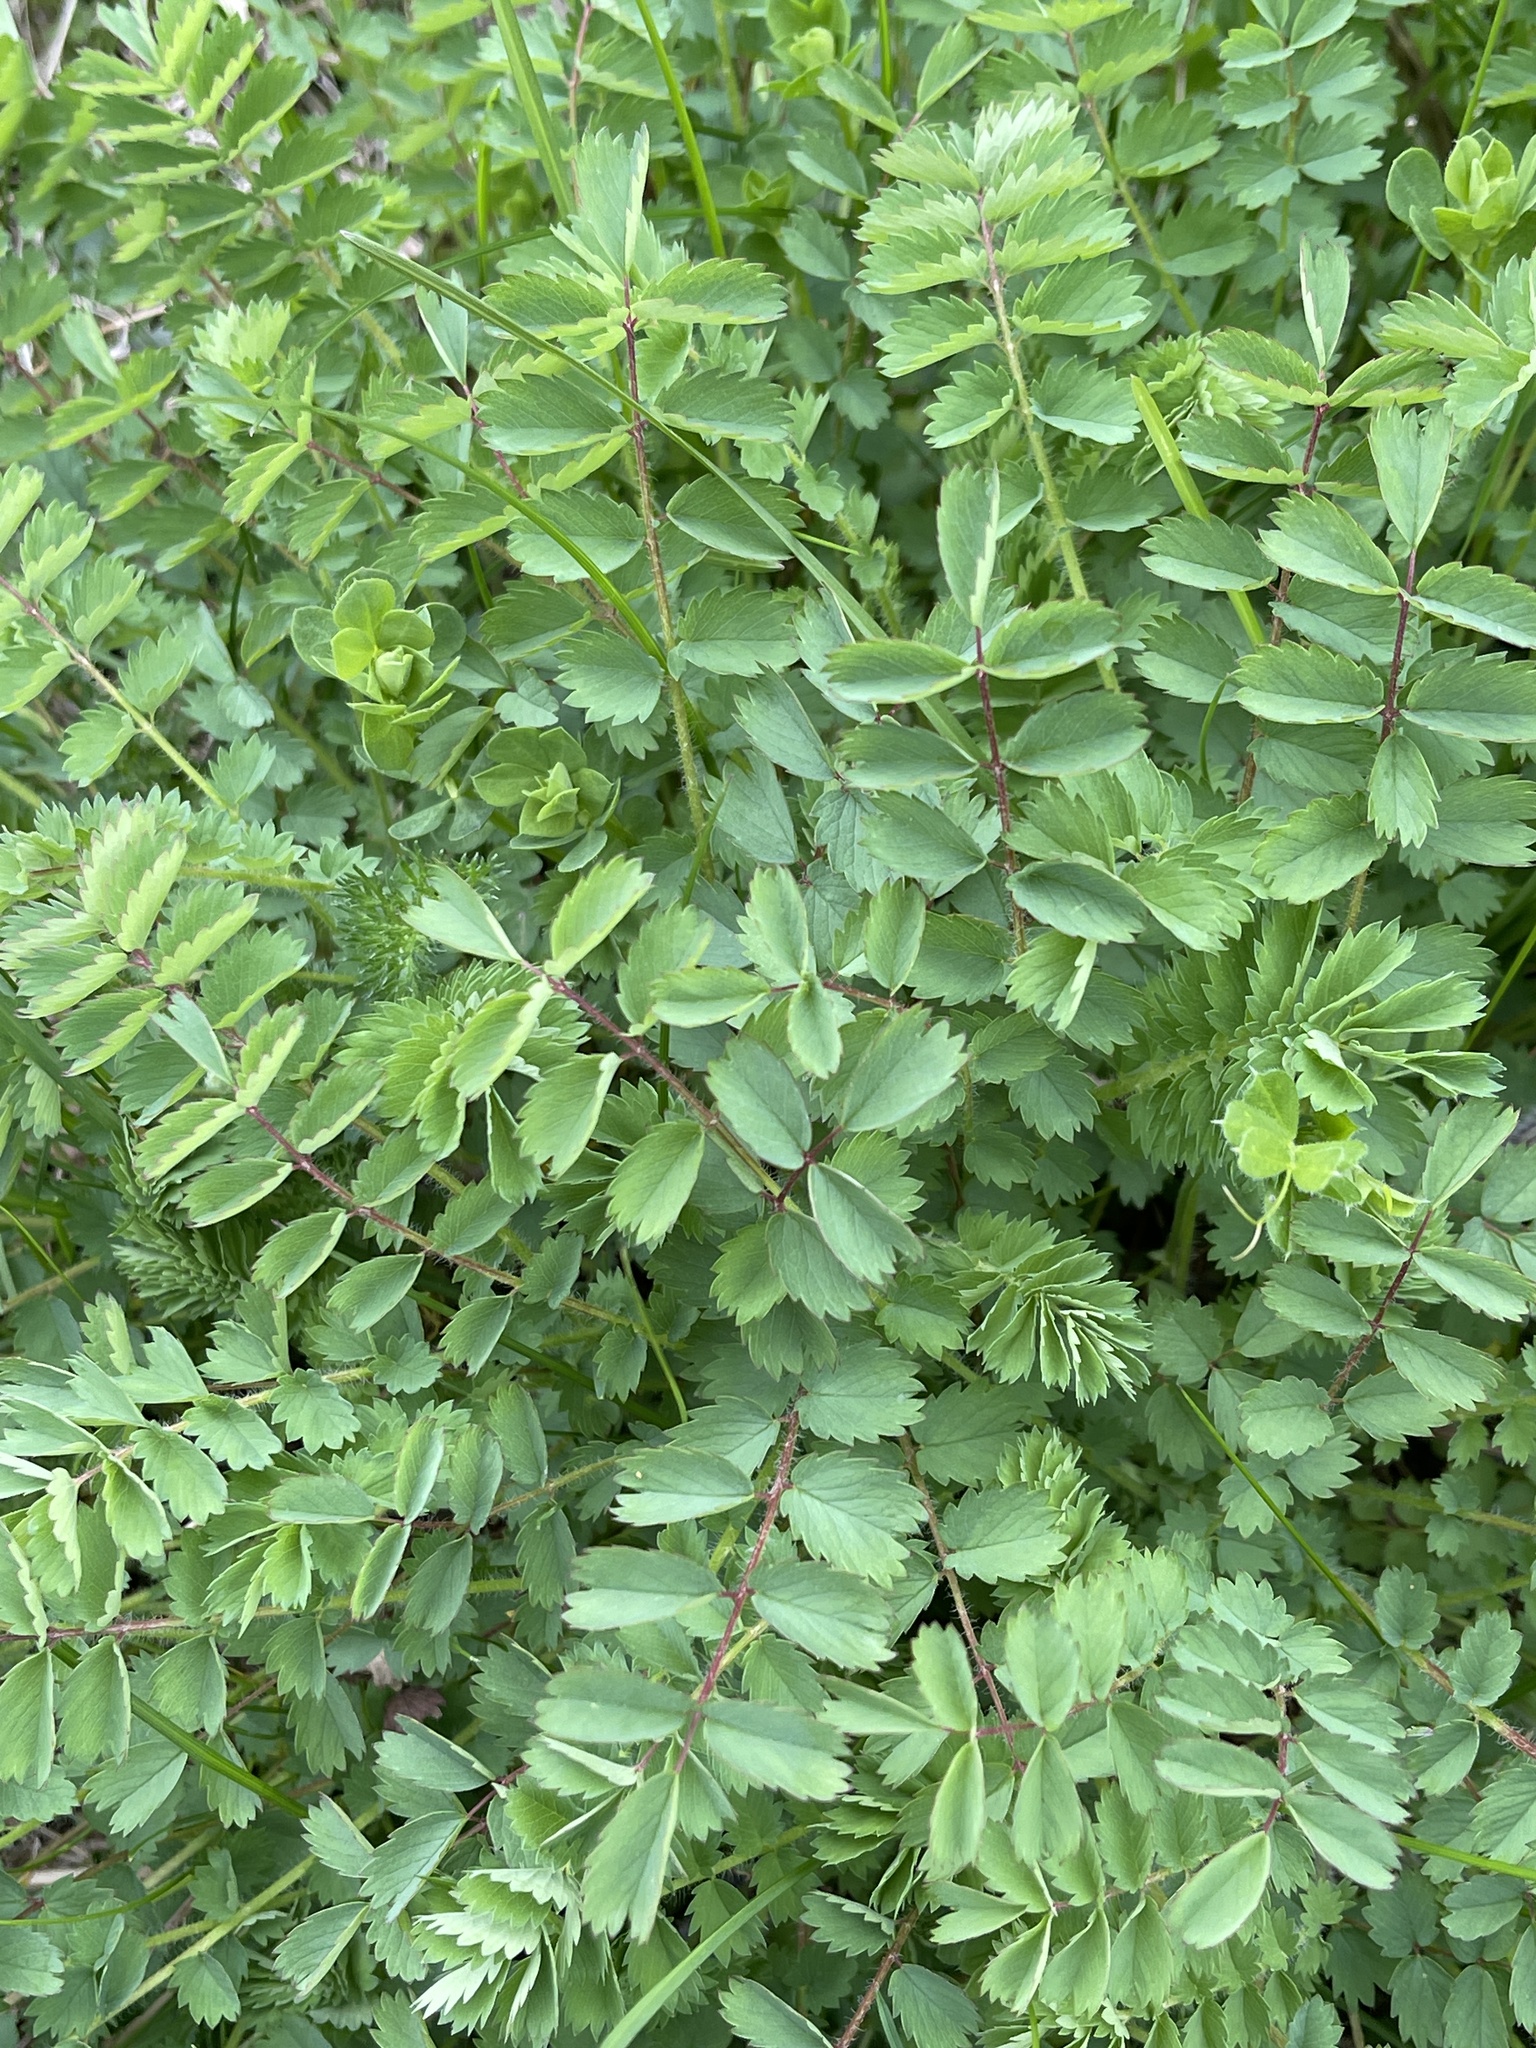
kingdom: Plantae
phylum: Tracheophyta
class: Magnoliopsida
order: Rosales
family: Rosaceae
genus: Poterium
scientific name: Poterium sanguisorba
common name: Salad burnet
